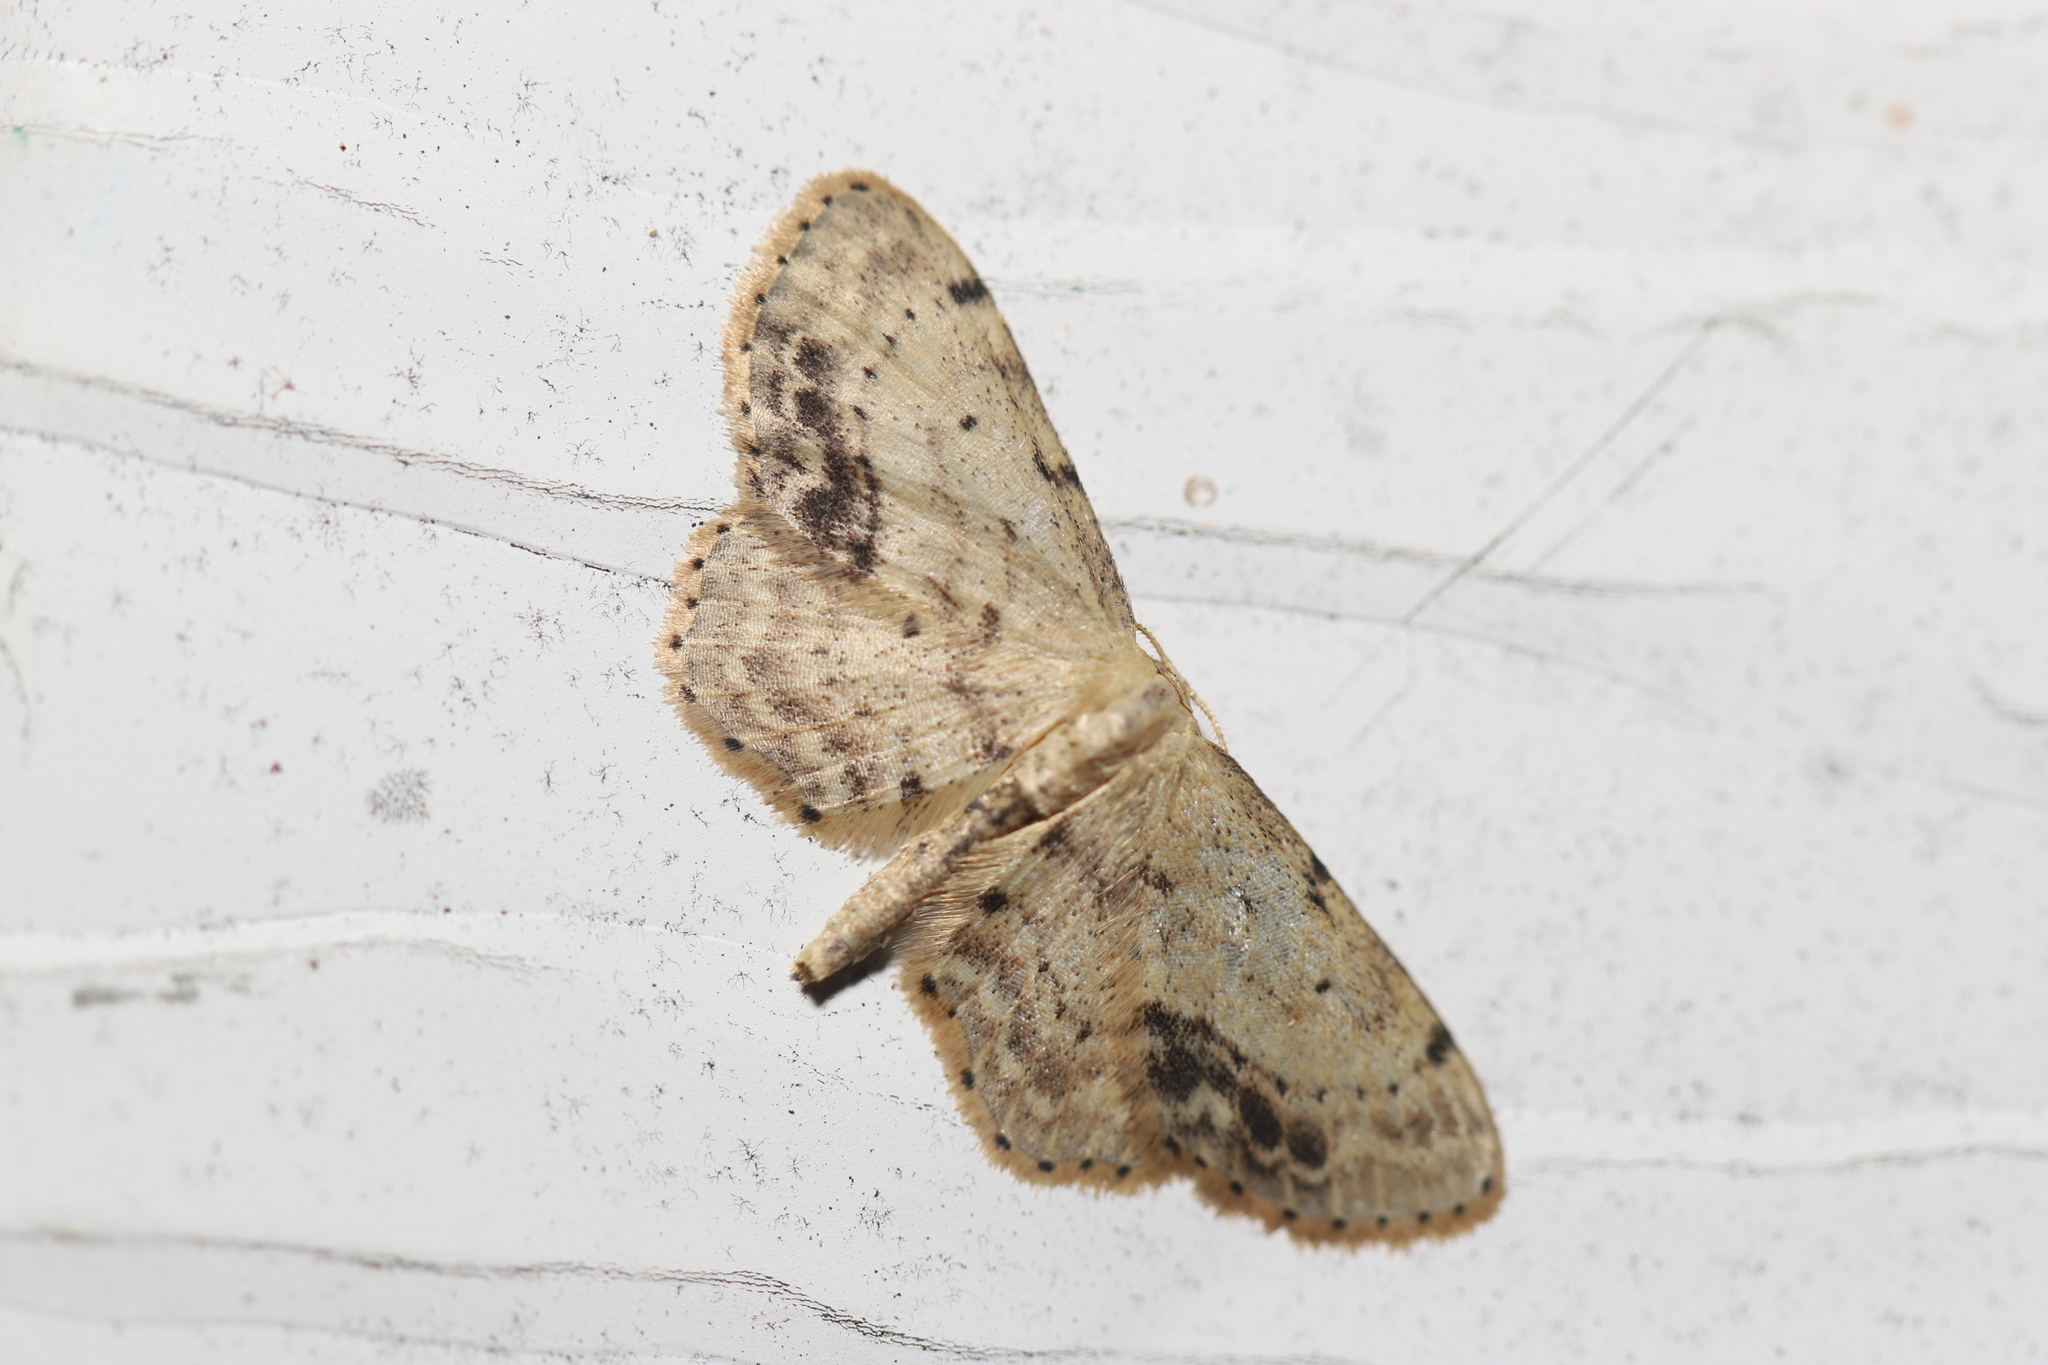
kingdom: Animalia
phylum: Arthropoda
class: Insecta
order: Lepidoptera
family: Geometridae
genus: Idaea
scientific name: Idaea dimidiata
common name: Single-dotted wave
